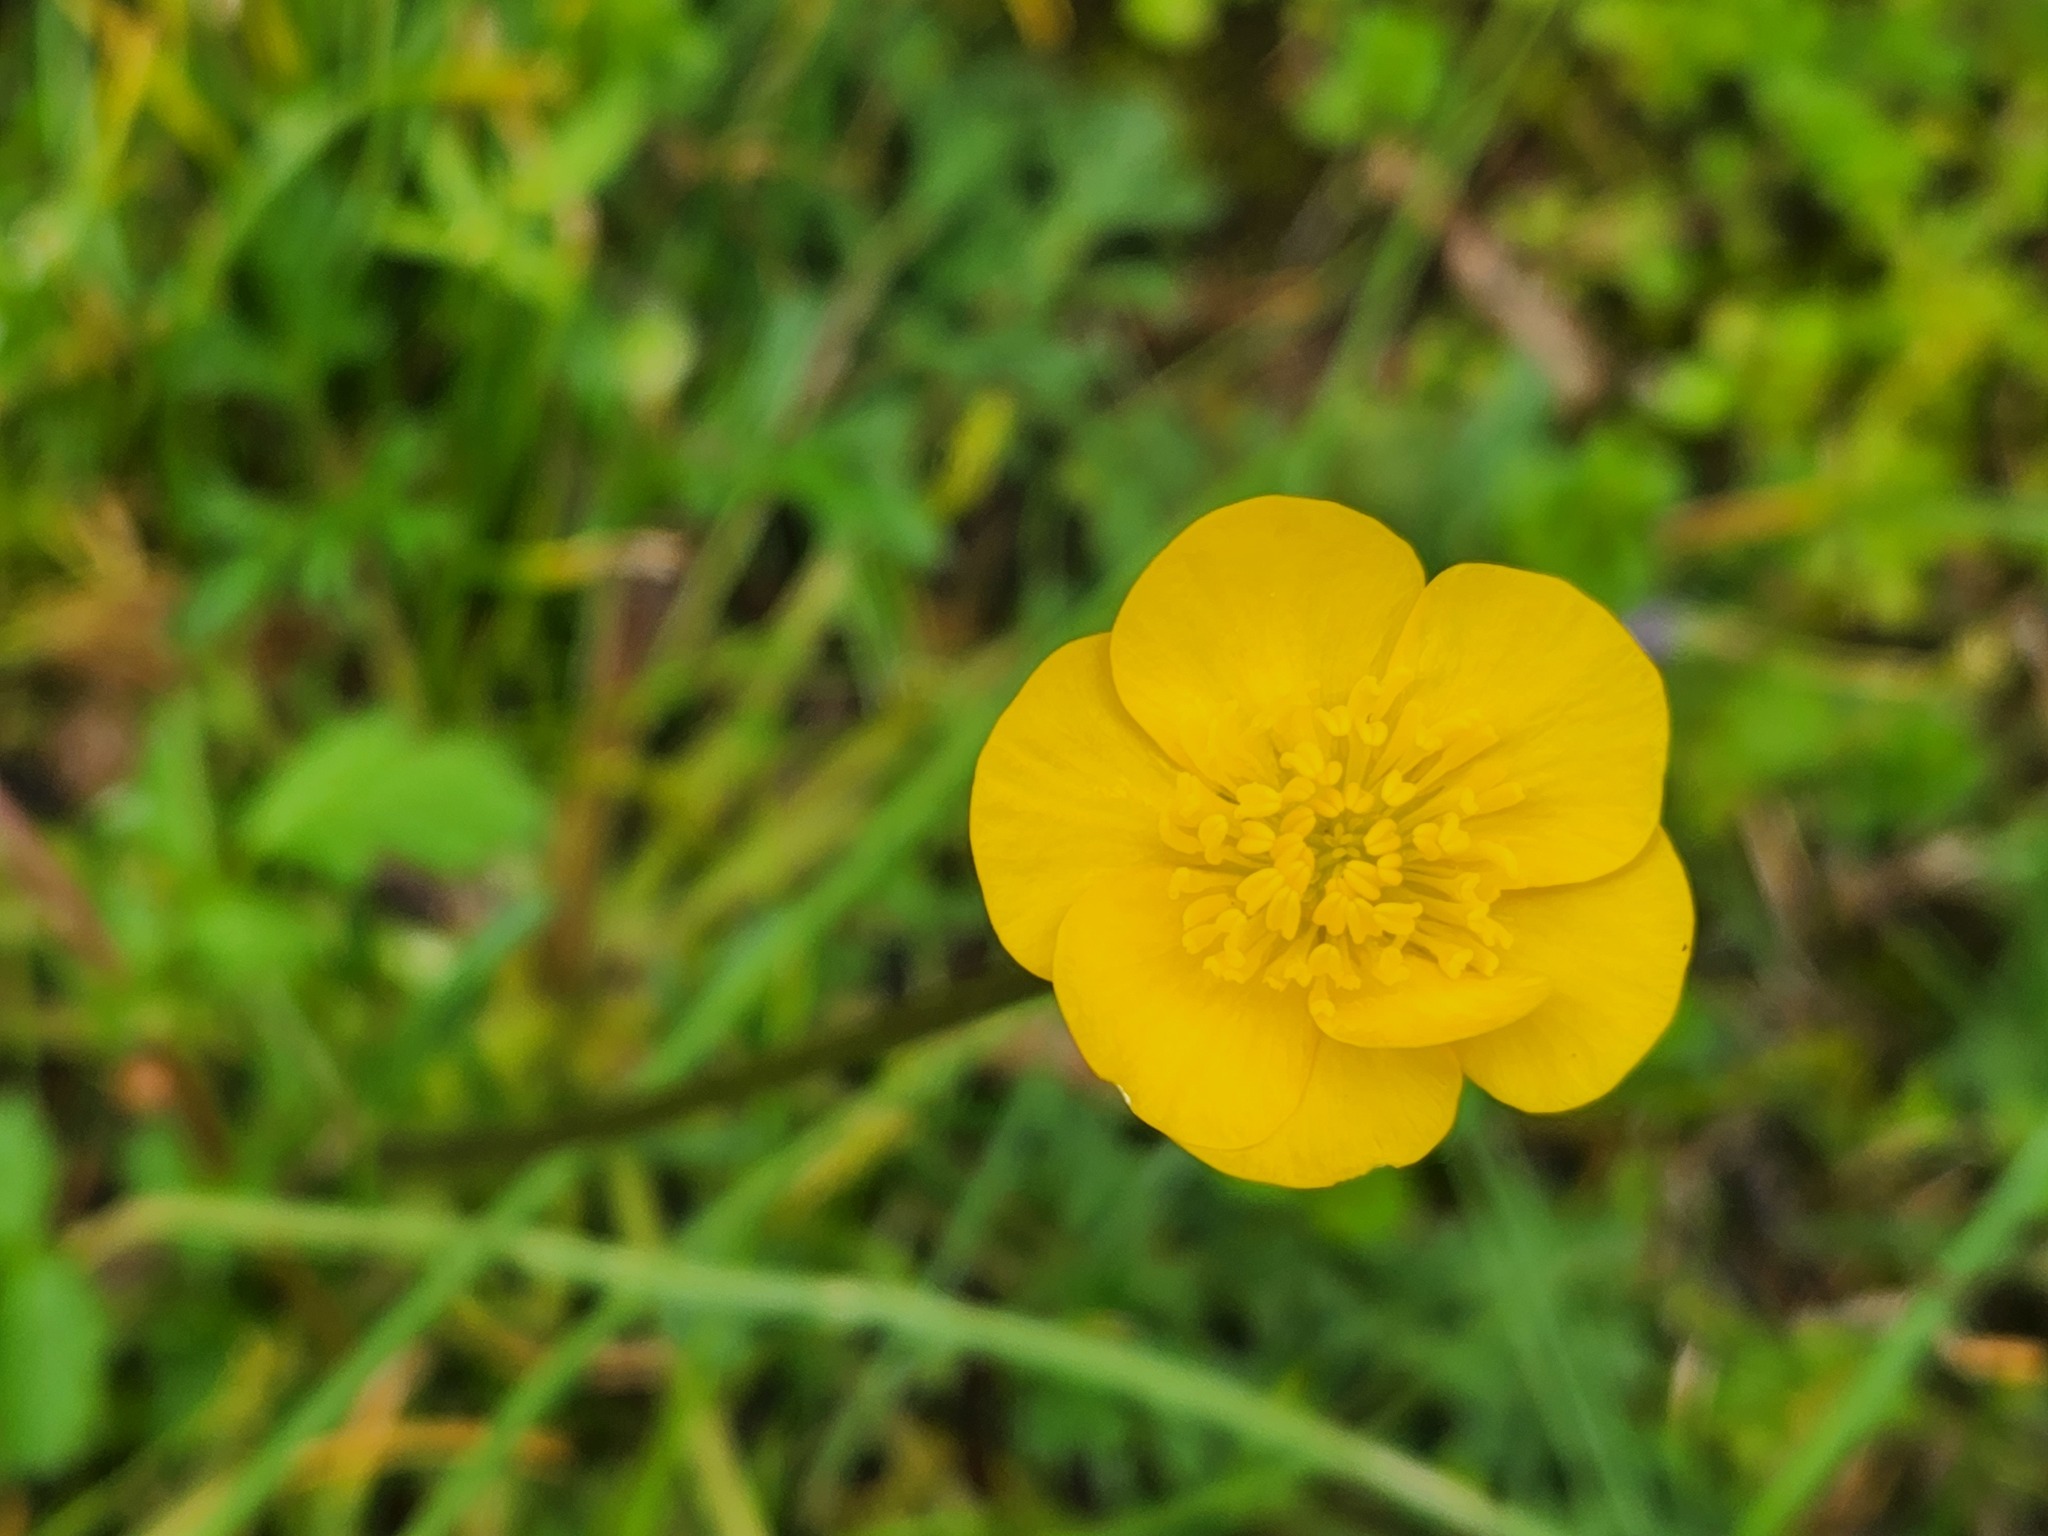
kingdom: Plantae
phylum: Tracheophyta
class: Magnoliopsida
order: Ranunculales
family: Ranunculaceae
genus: Ranunculus
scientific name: Ranunculus bulbosus
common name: Bulbous buttercup
